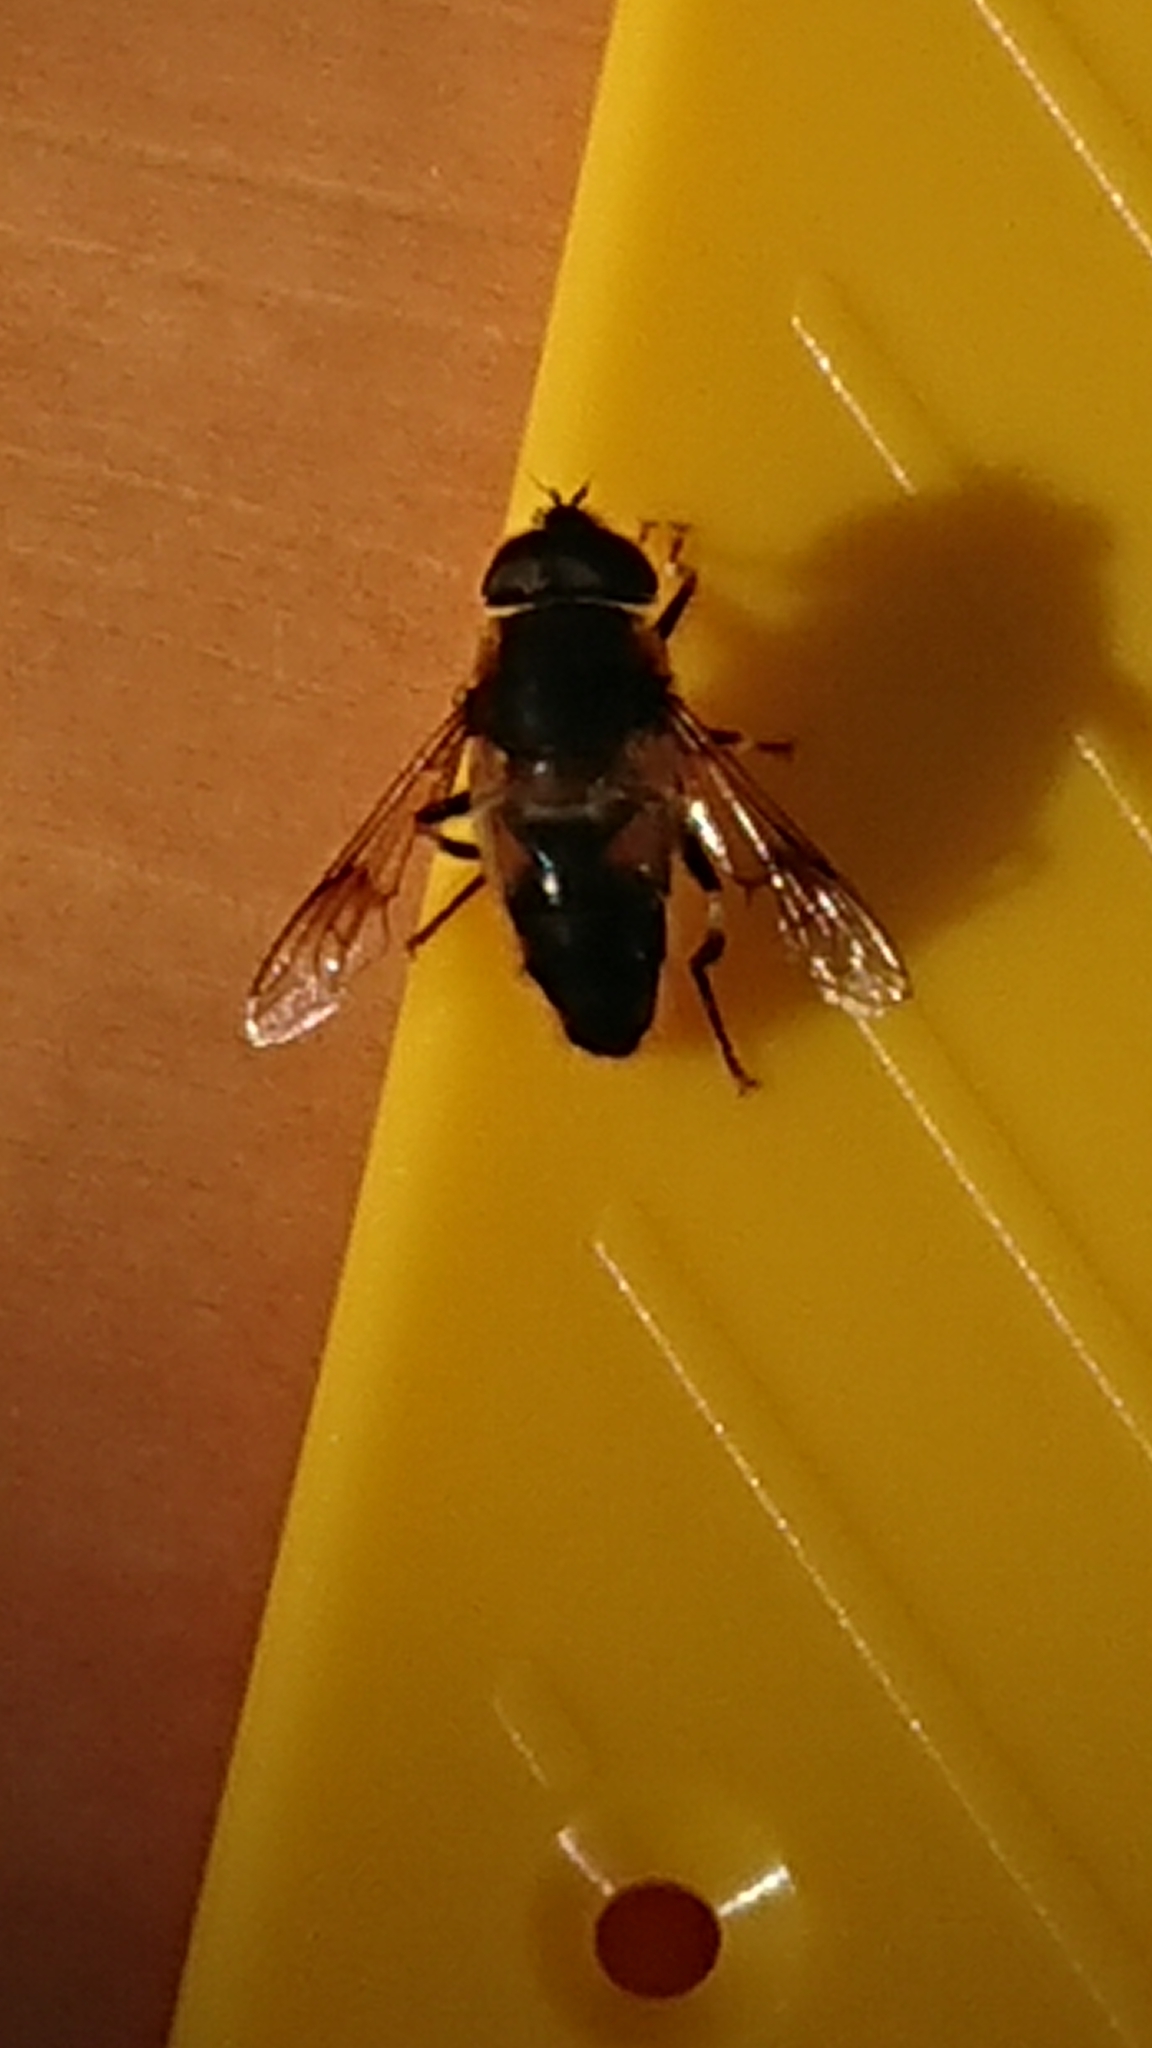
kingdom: Animalia
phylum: Arthropoda
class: Insecta
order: Diptera
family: Syrphidae
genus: Eristalis
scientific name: Eristalis pertinax
